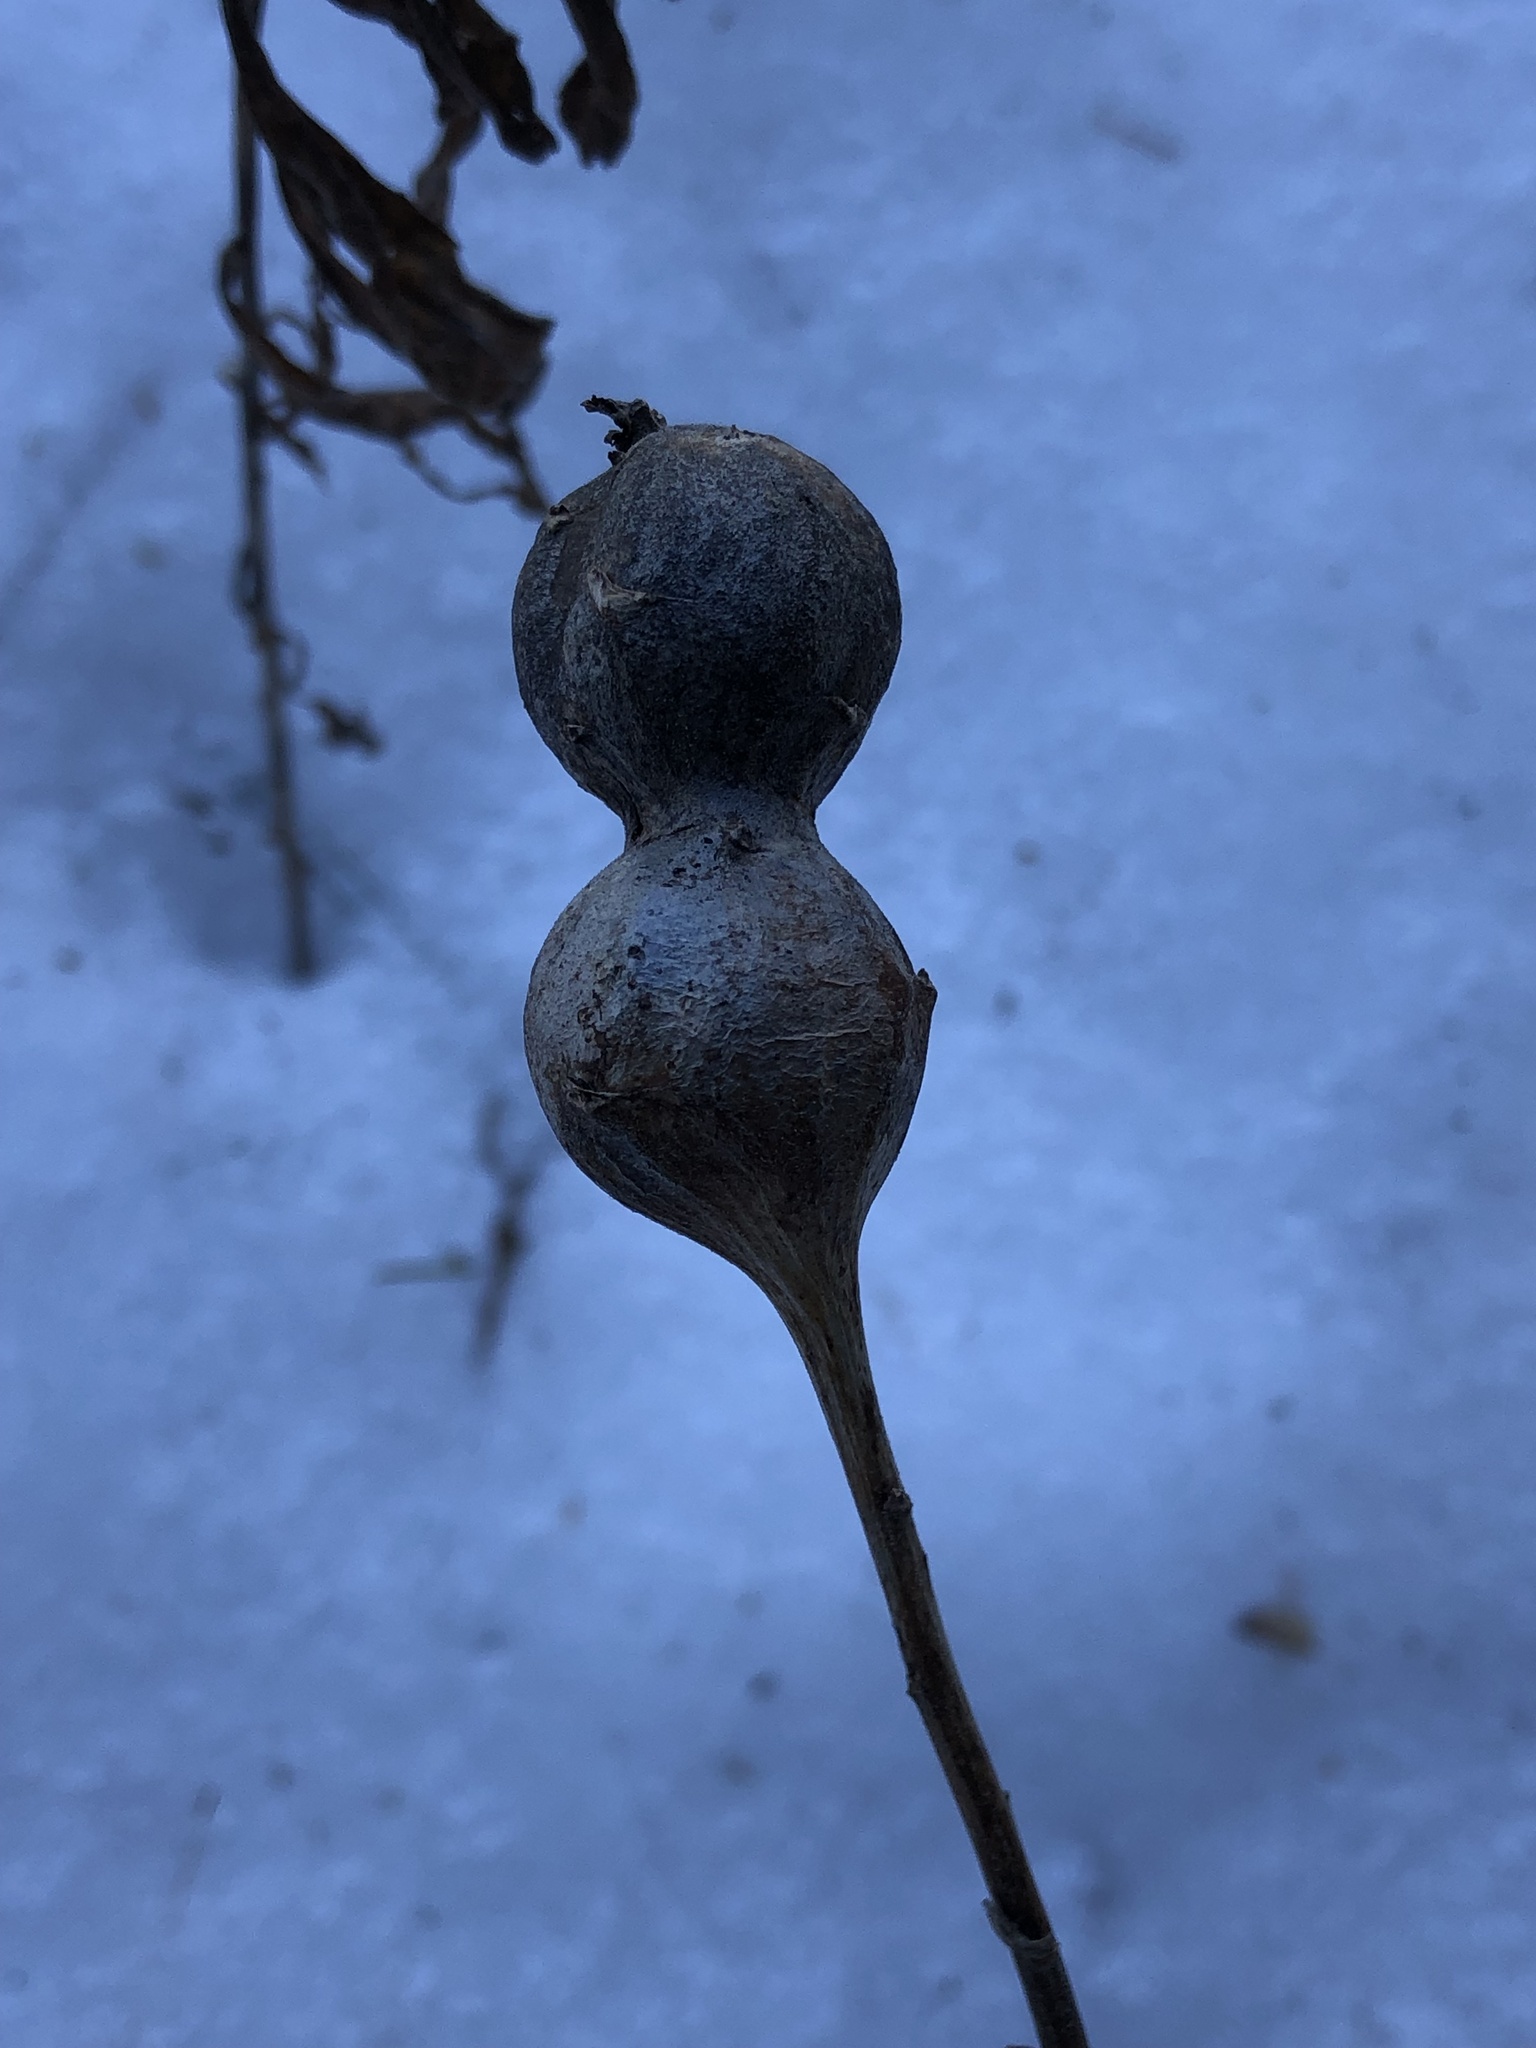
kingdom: Animalia
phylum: Arthropoda
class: Insecta
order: Diptera
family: Tephritidae
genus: Eurosta
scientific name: Eurosta solidaginis
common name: Goldenrod gall fly
